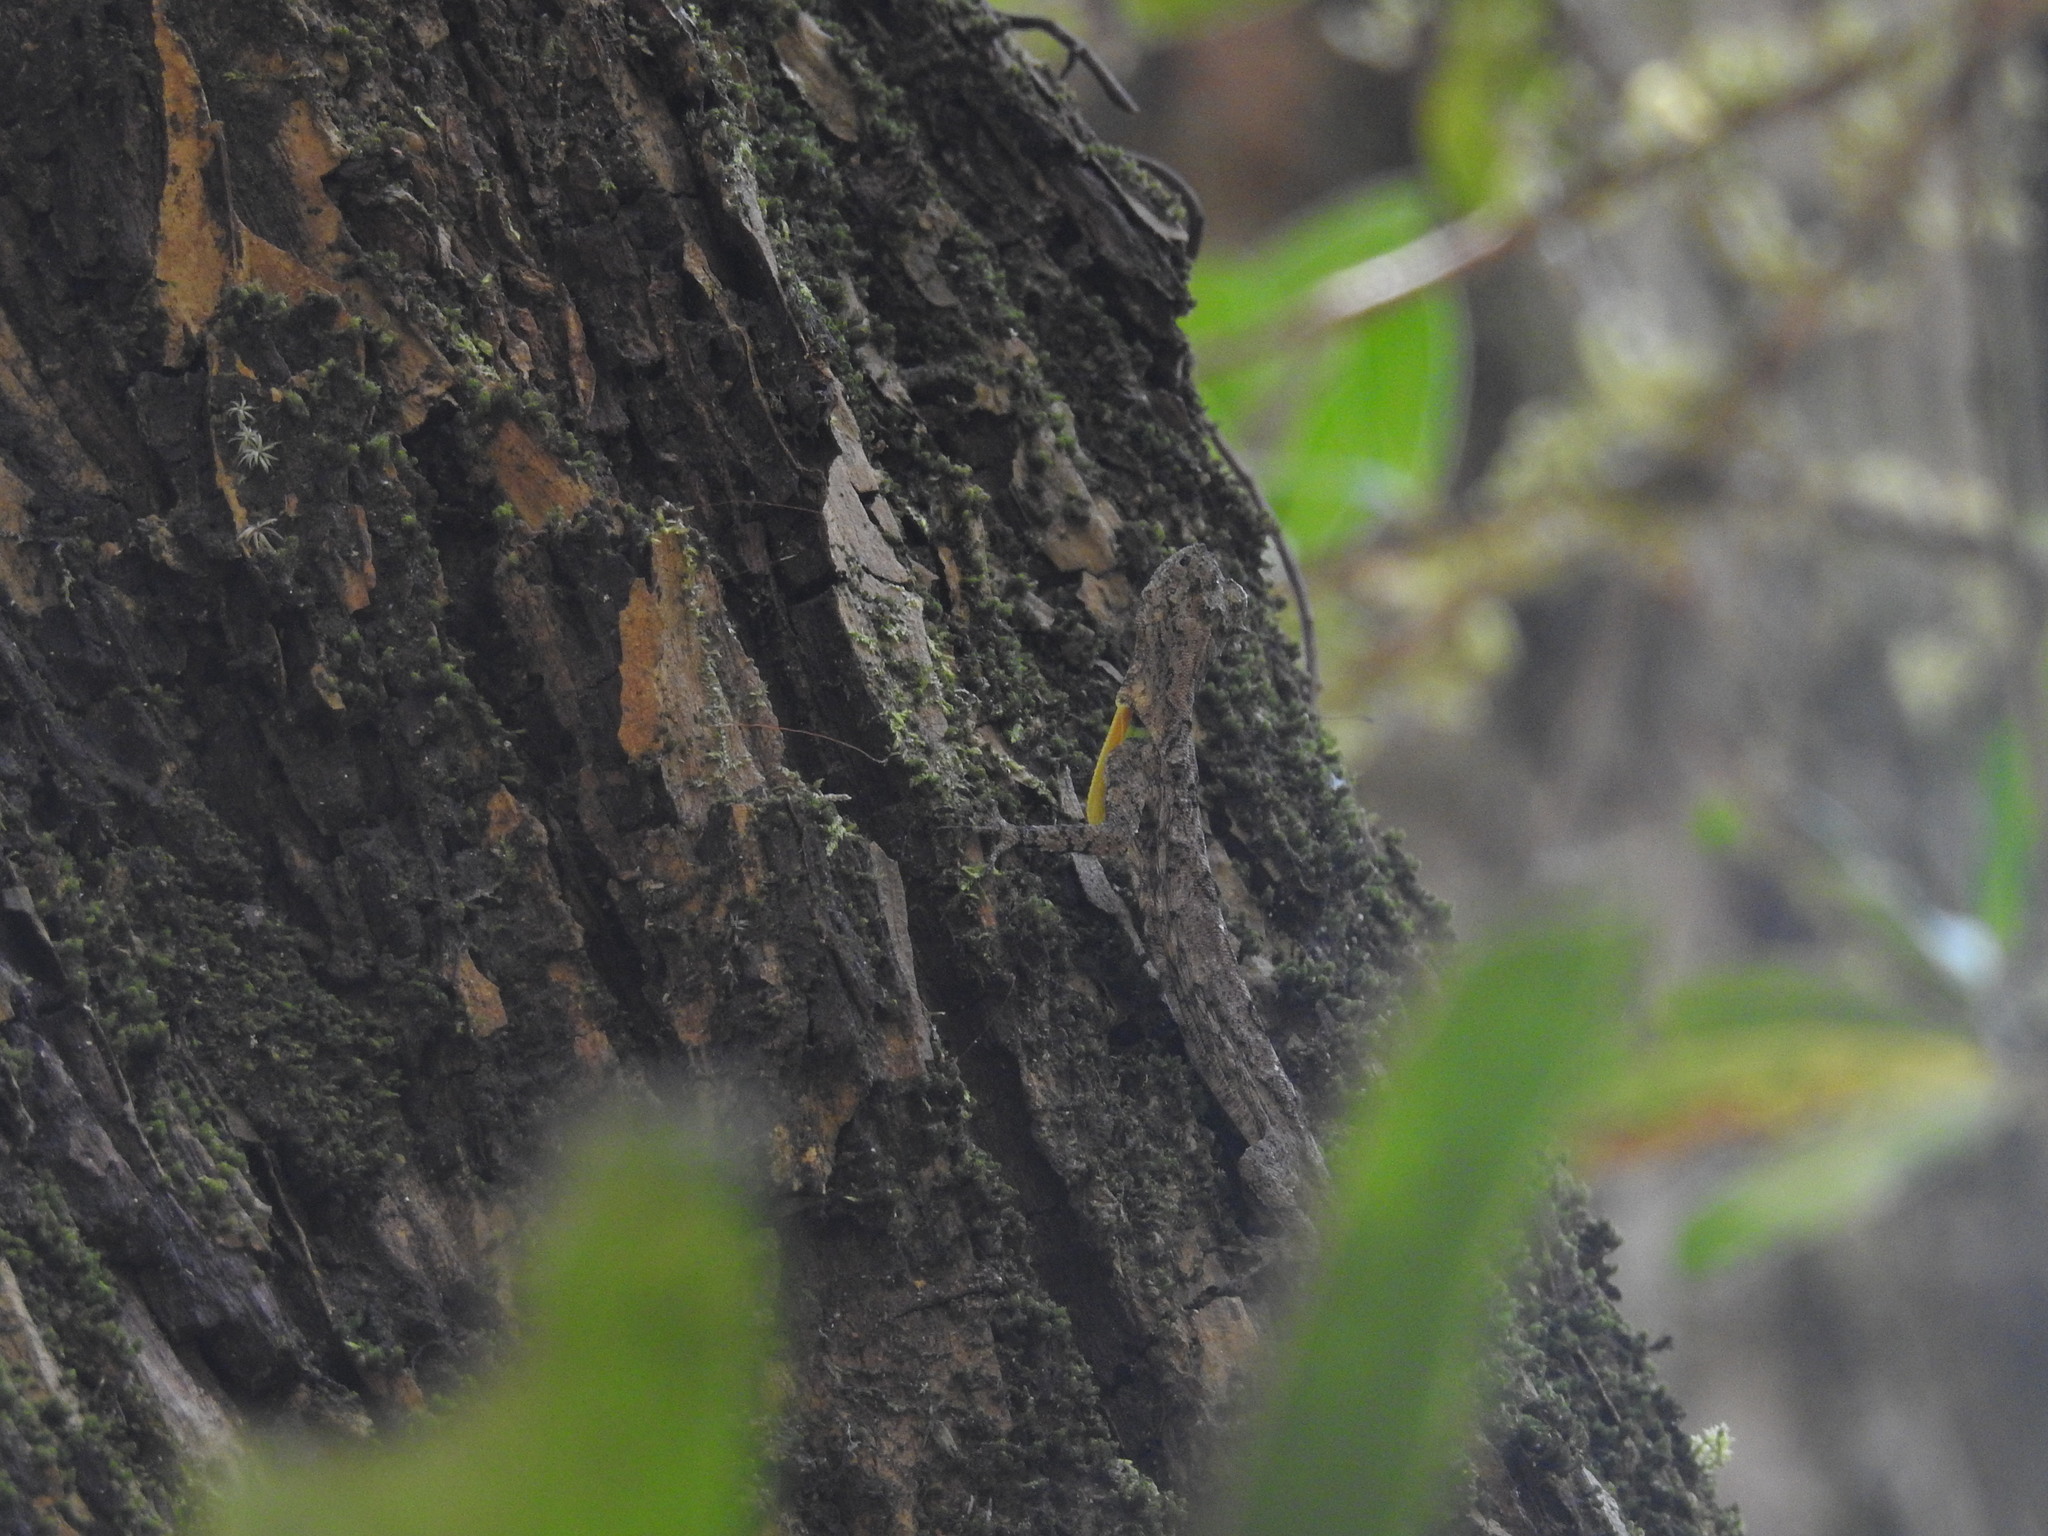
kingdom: Animalia
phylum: Chordata
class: Squamata
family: Agamidae
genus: Draco
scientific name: Draco dussumieri
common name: Southern flying lizard
